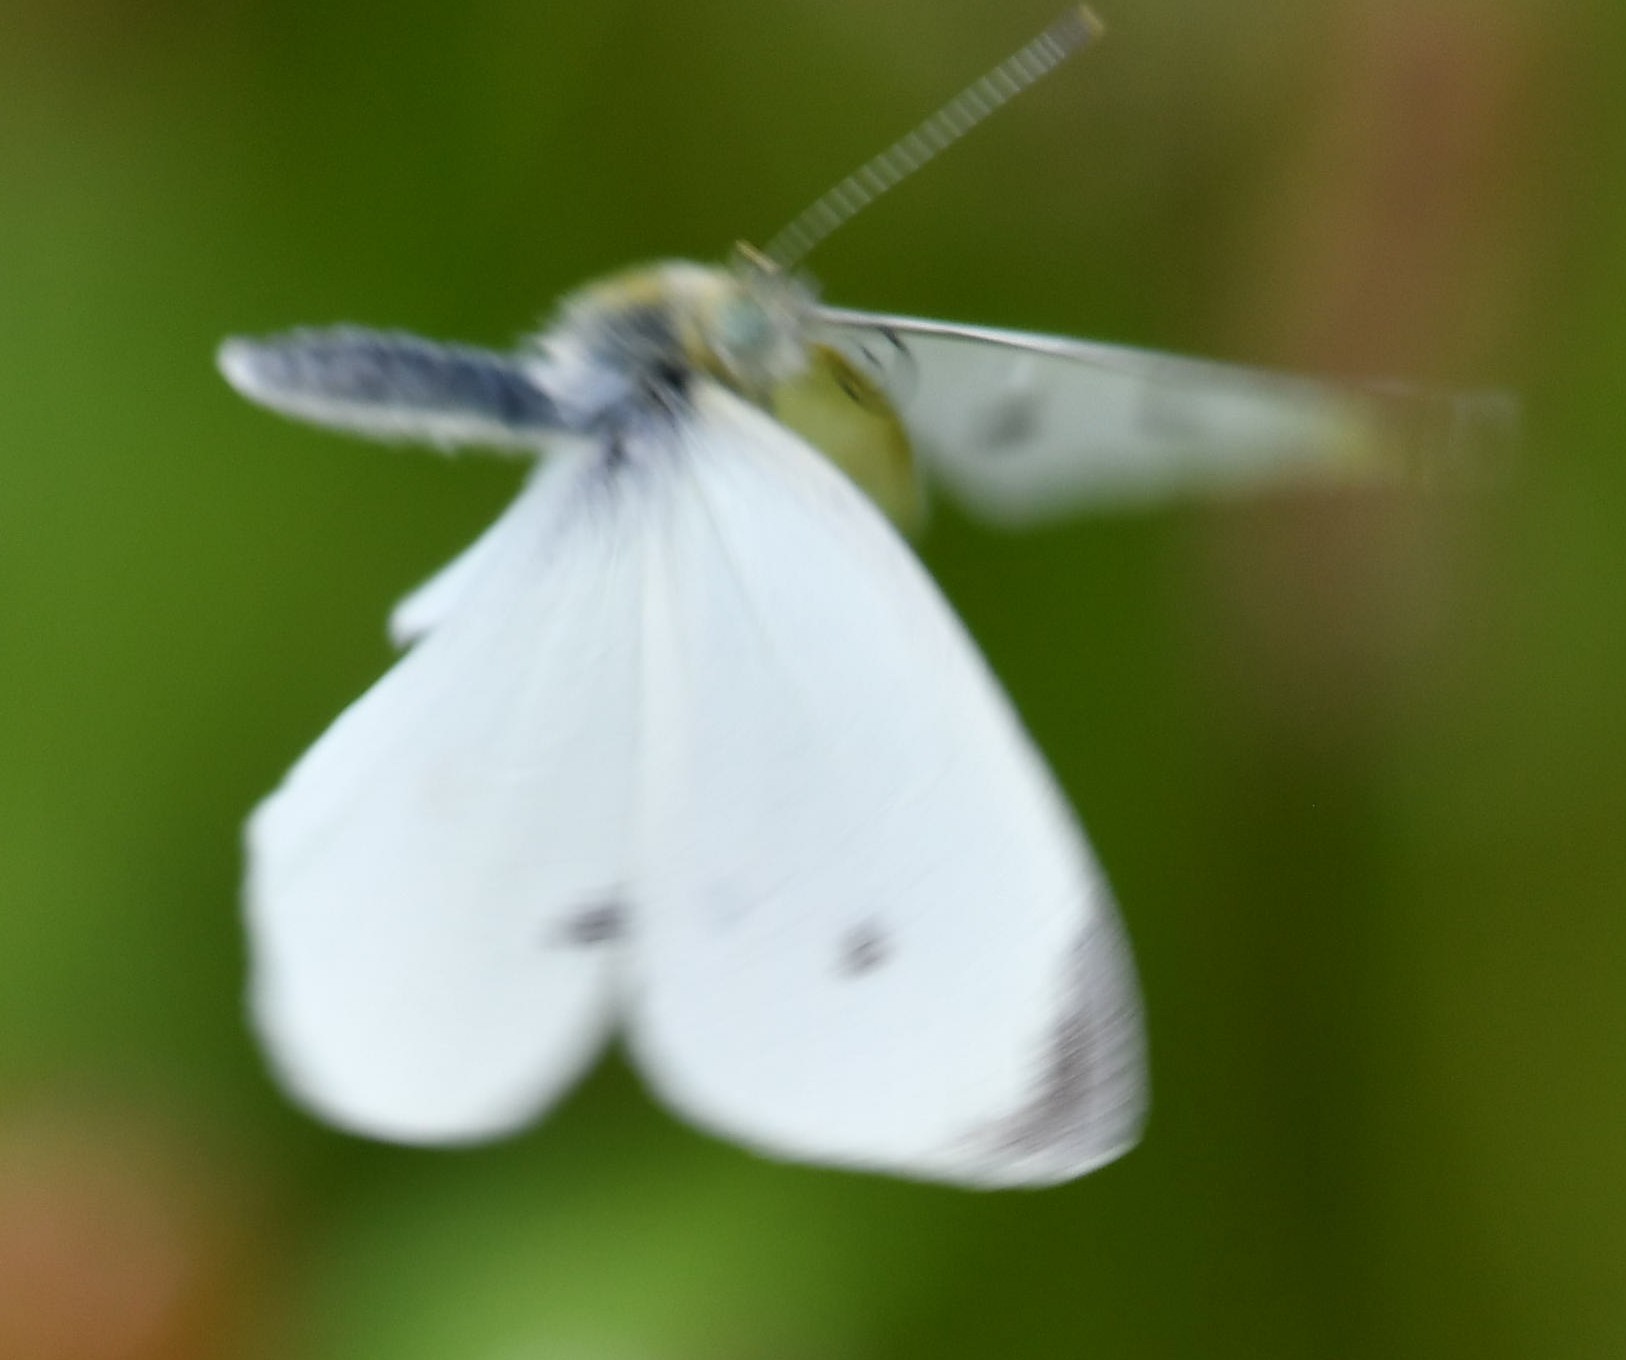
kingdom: Animalia
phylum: Arthropoda
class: Insecta
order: Lepidoptera
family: Pieridae
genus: Pieris
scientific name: Pieris rapae
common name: Small white
